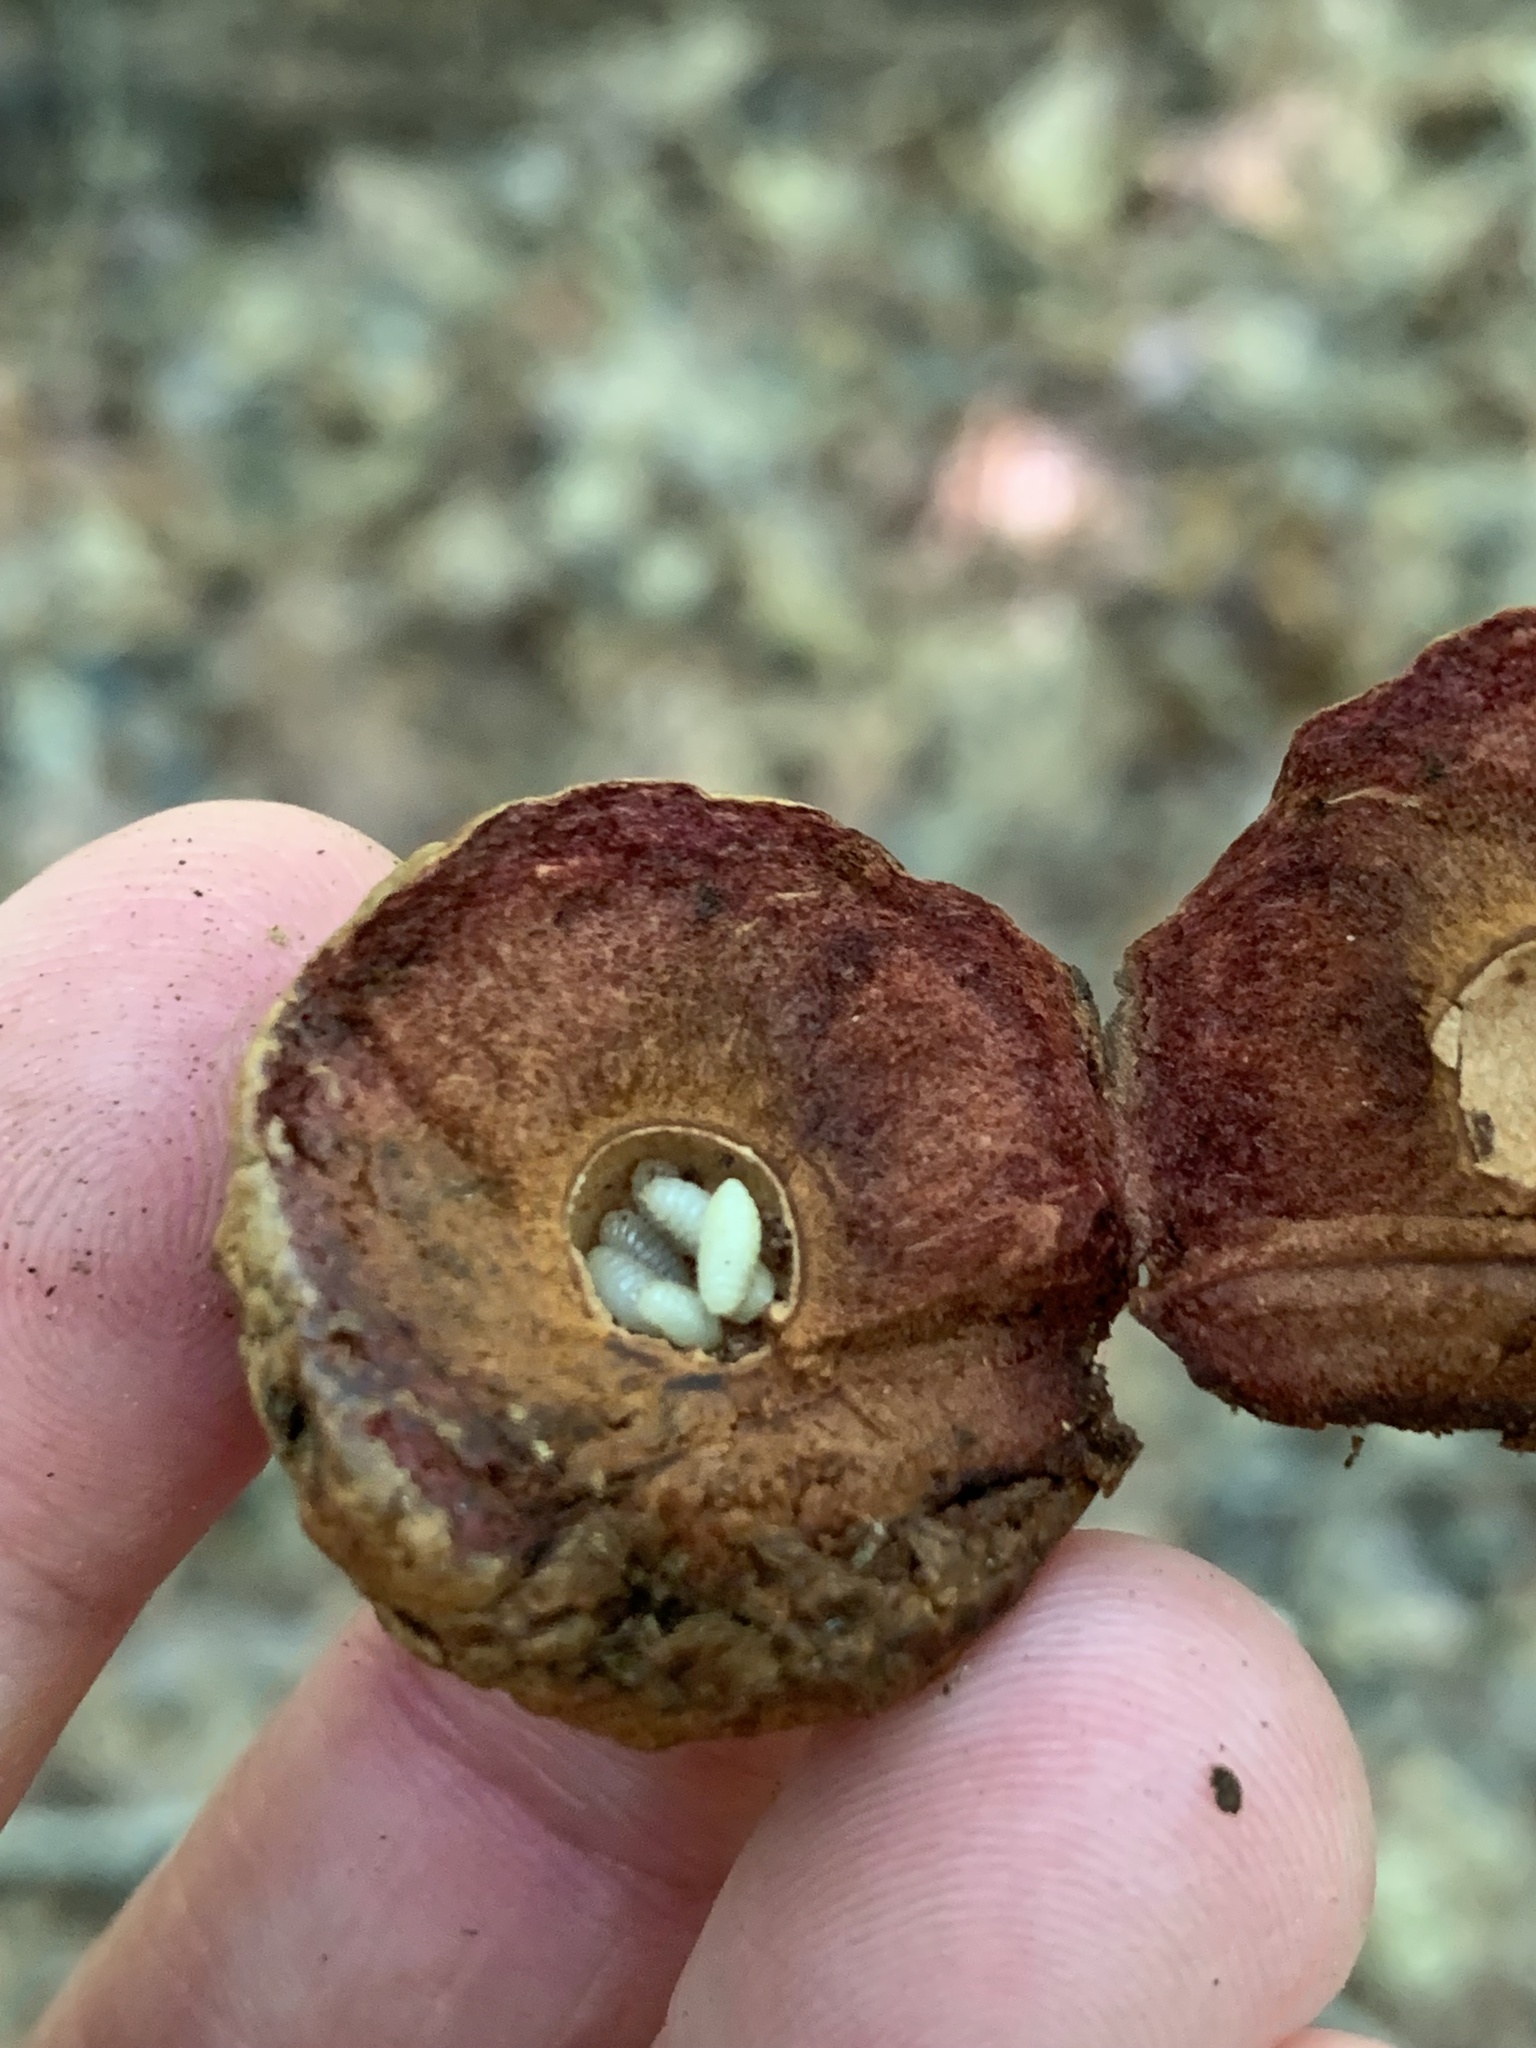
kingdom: Animalia
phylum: Arthropoda
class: Insecta
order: Hymenoptera
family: Cynipidae
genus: Amphibolips
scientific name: Amphibolips
